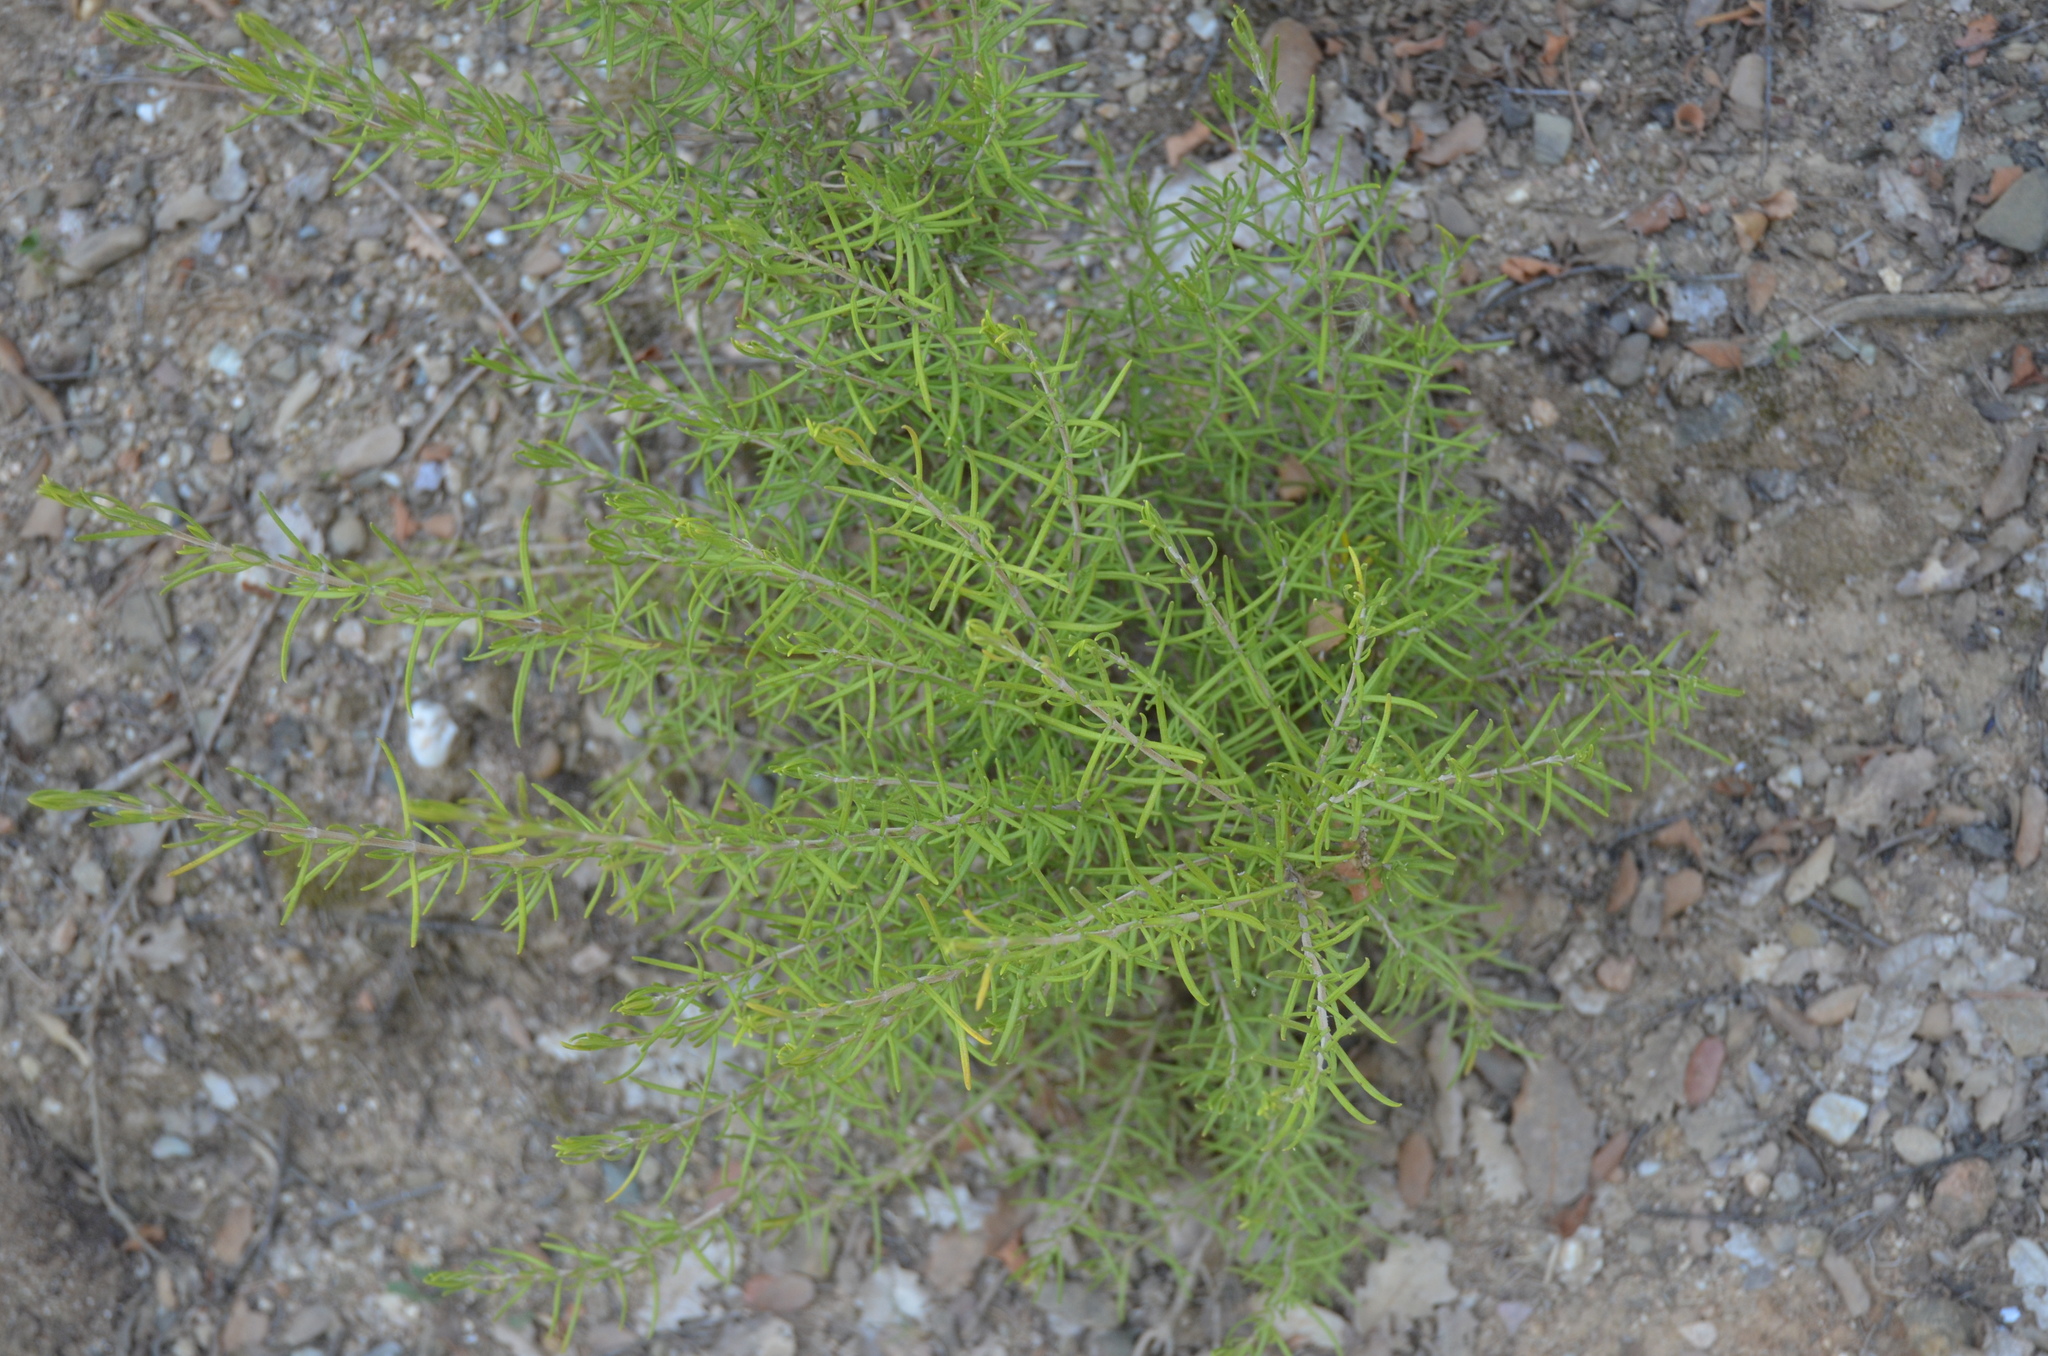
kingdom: Plantae
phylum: Tracheophyta
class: Magnoliopsida
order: Lamiales
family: Lamiaceae
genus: Salvia
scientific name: Salvia rosmarinus
